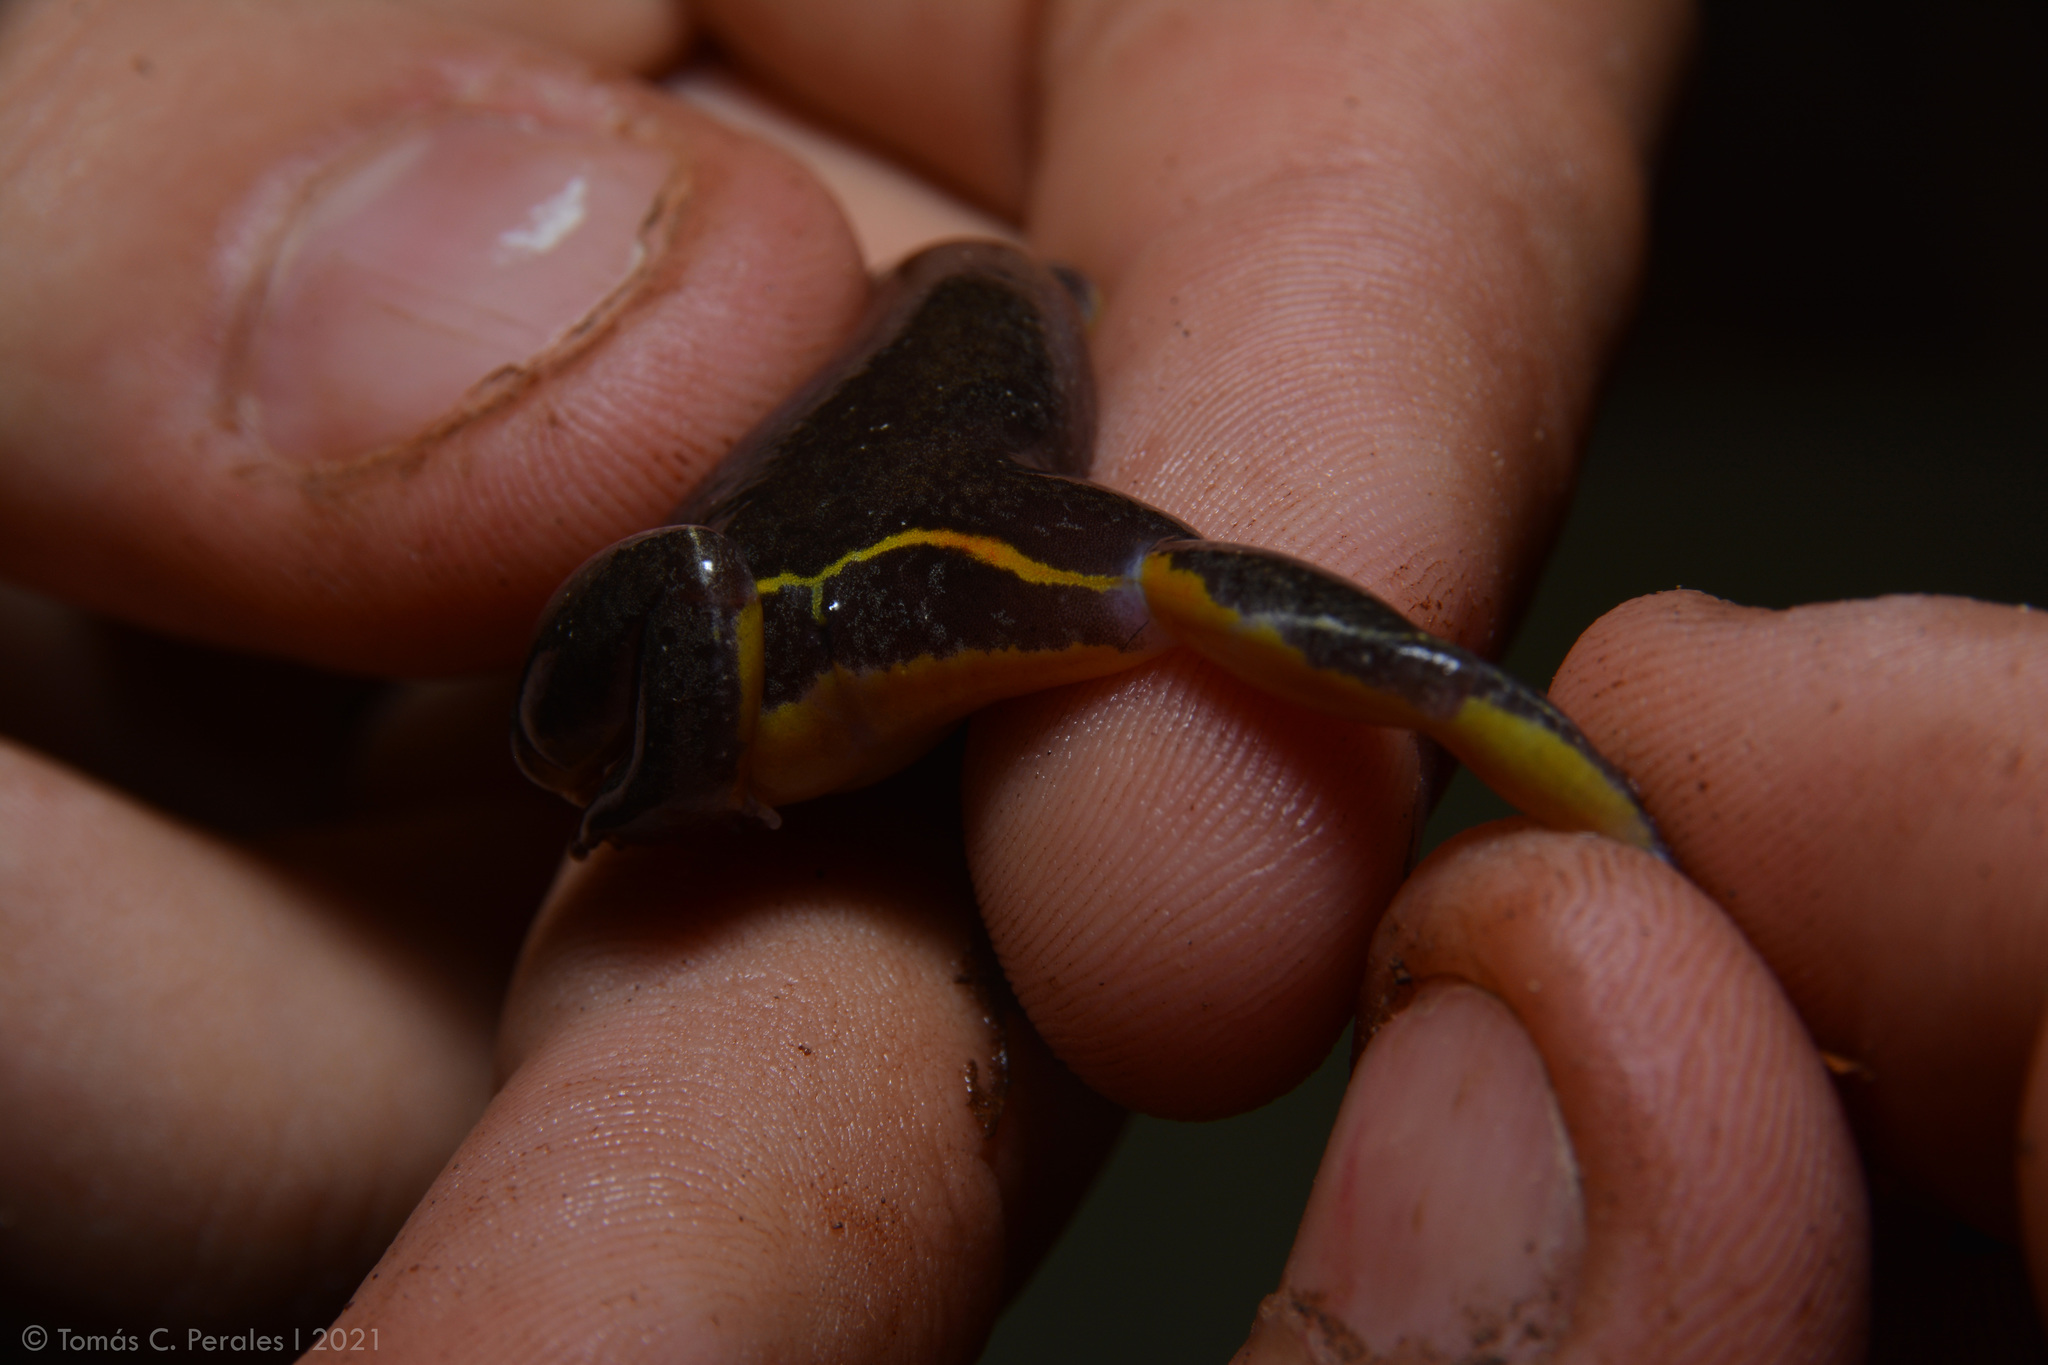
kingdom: Animalia
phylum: Chordata
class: Amphibia
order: Anura
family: Microhylidae
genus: Elachistocleis
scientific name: Elachistocleis bicolor
